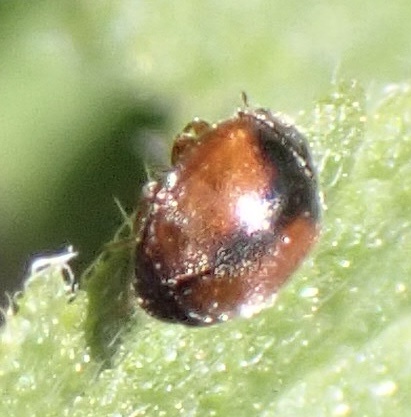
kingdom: Animalia
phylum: Arthropoda
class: Insecta
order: Coleoptera
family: Coccinellidae
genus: Scymnus
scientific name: Scymnus interruptus
